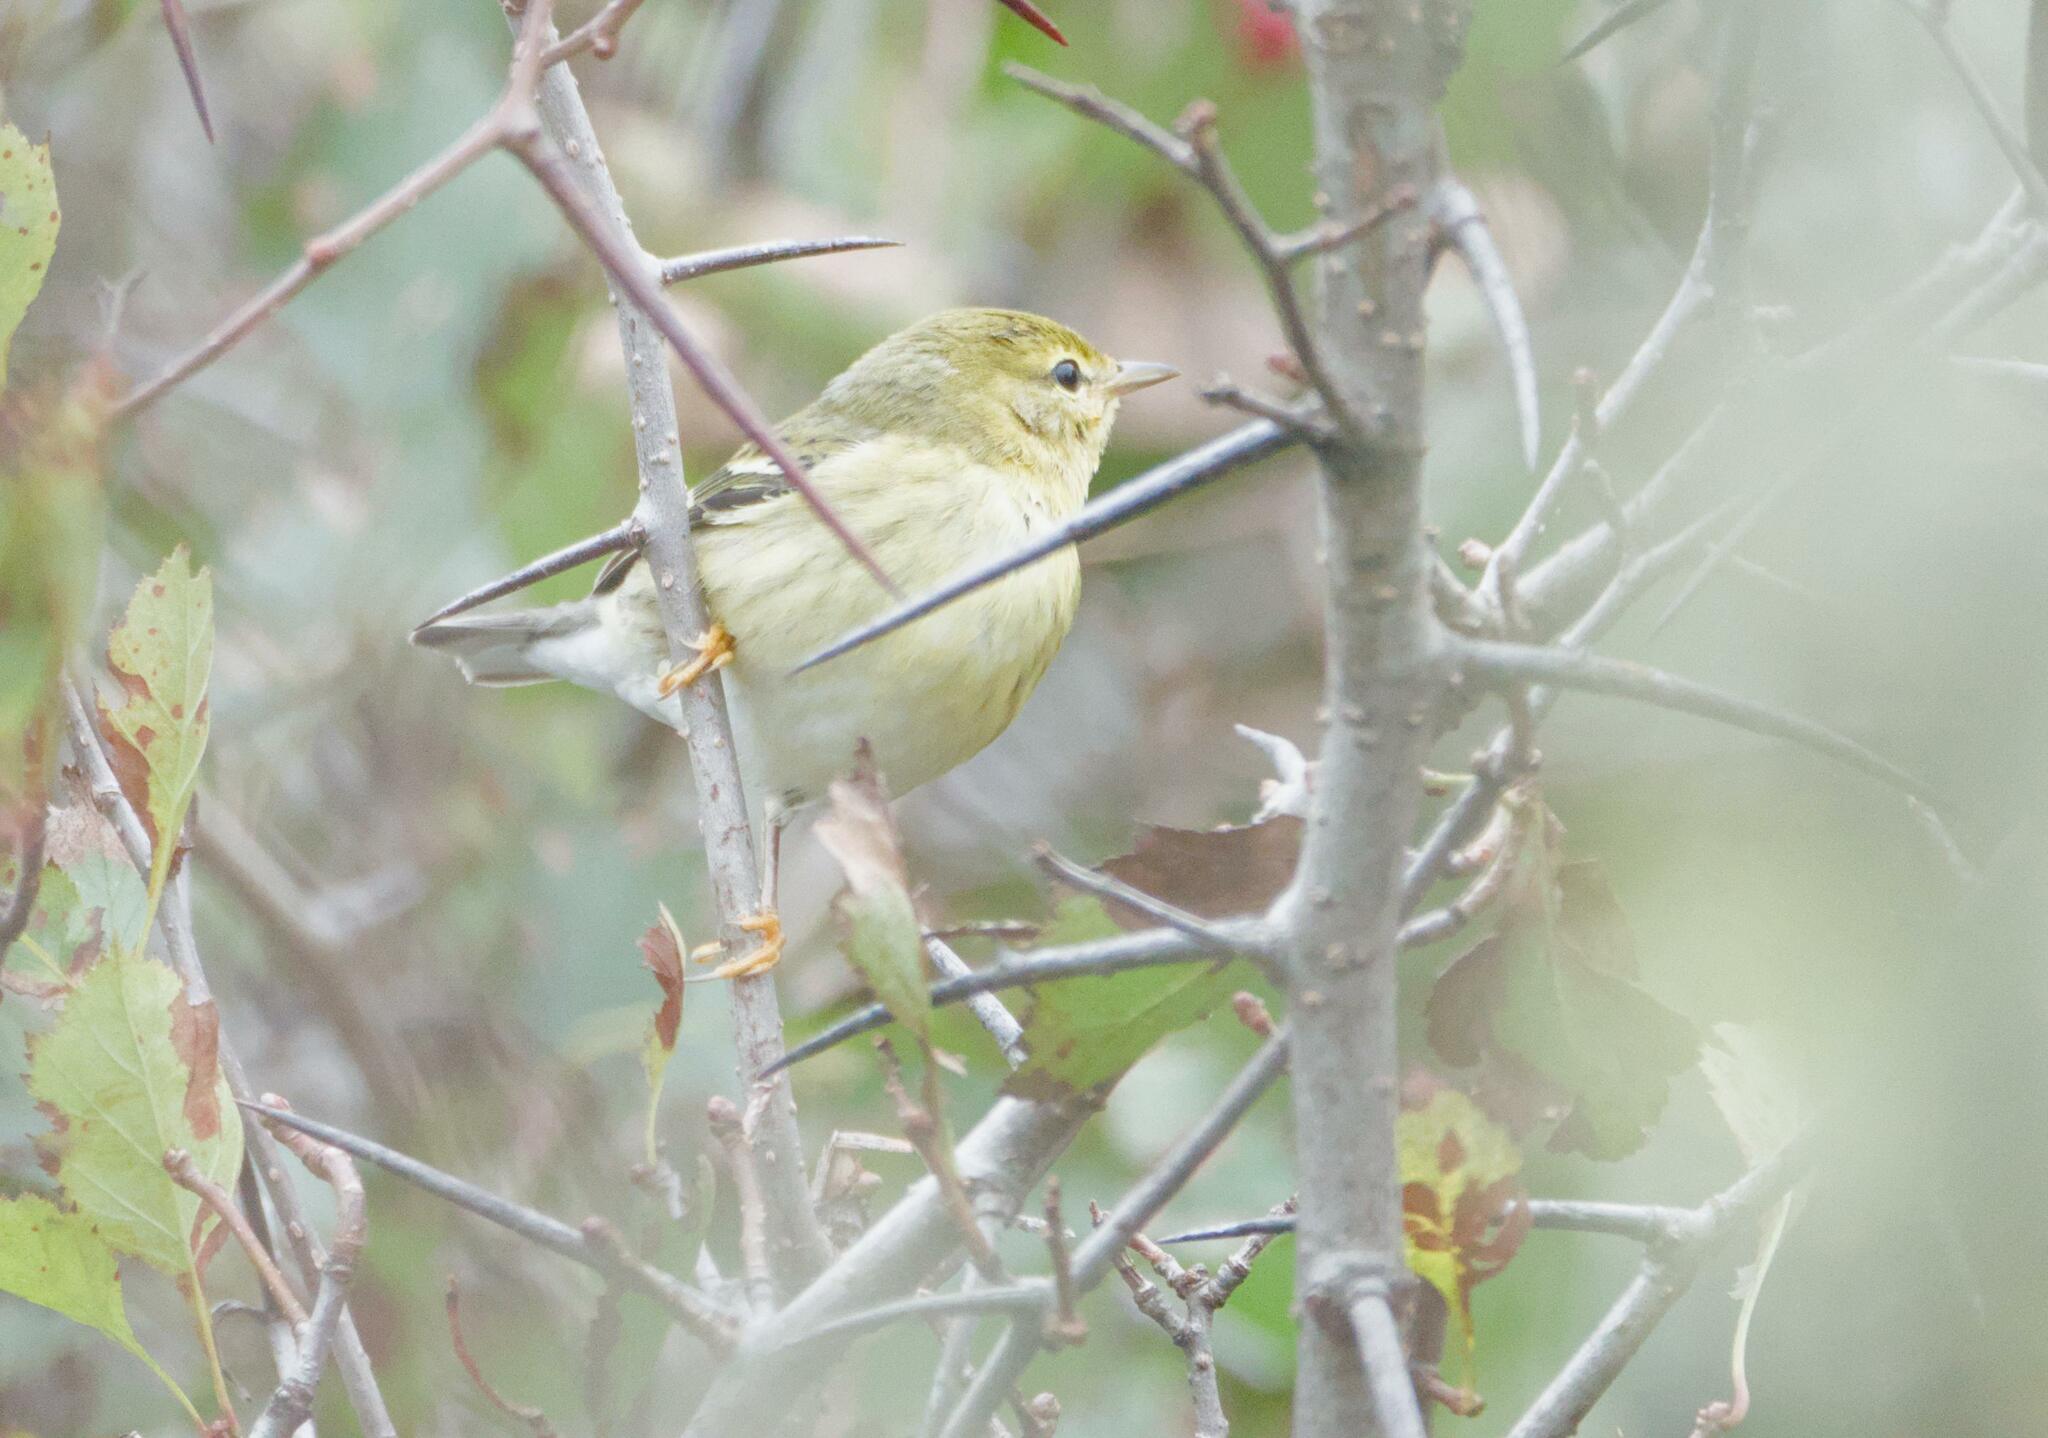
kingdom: Animalia
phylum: Chordata
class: Aves
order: Passeriformes
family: Parulidae
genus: Setophaga
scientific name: Setophaga striata
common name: Blackpoll warbler
